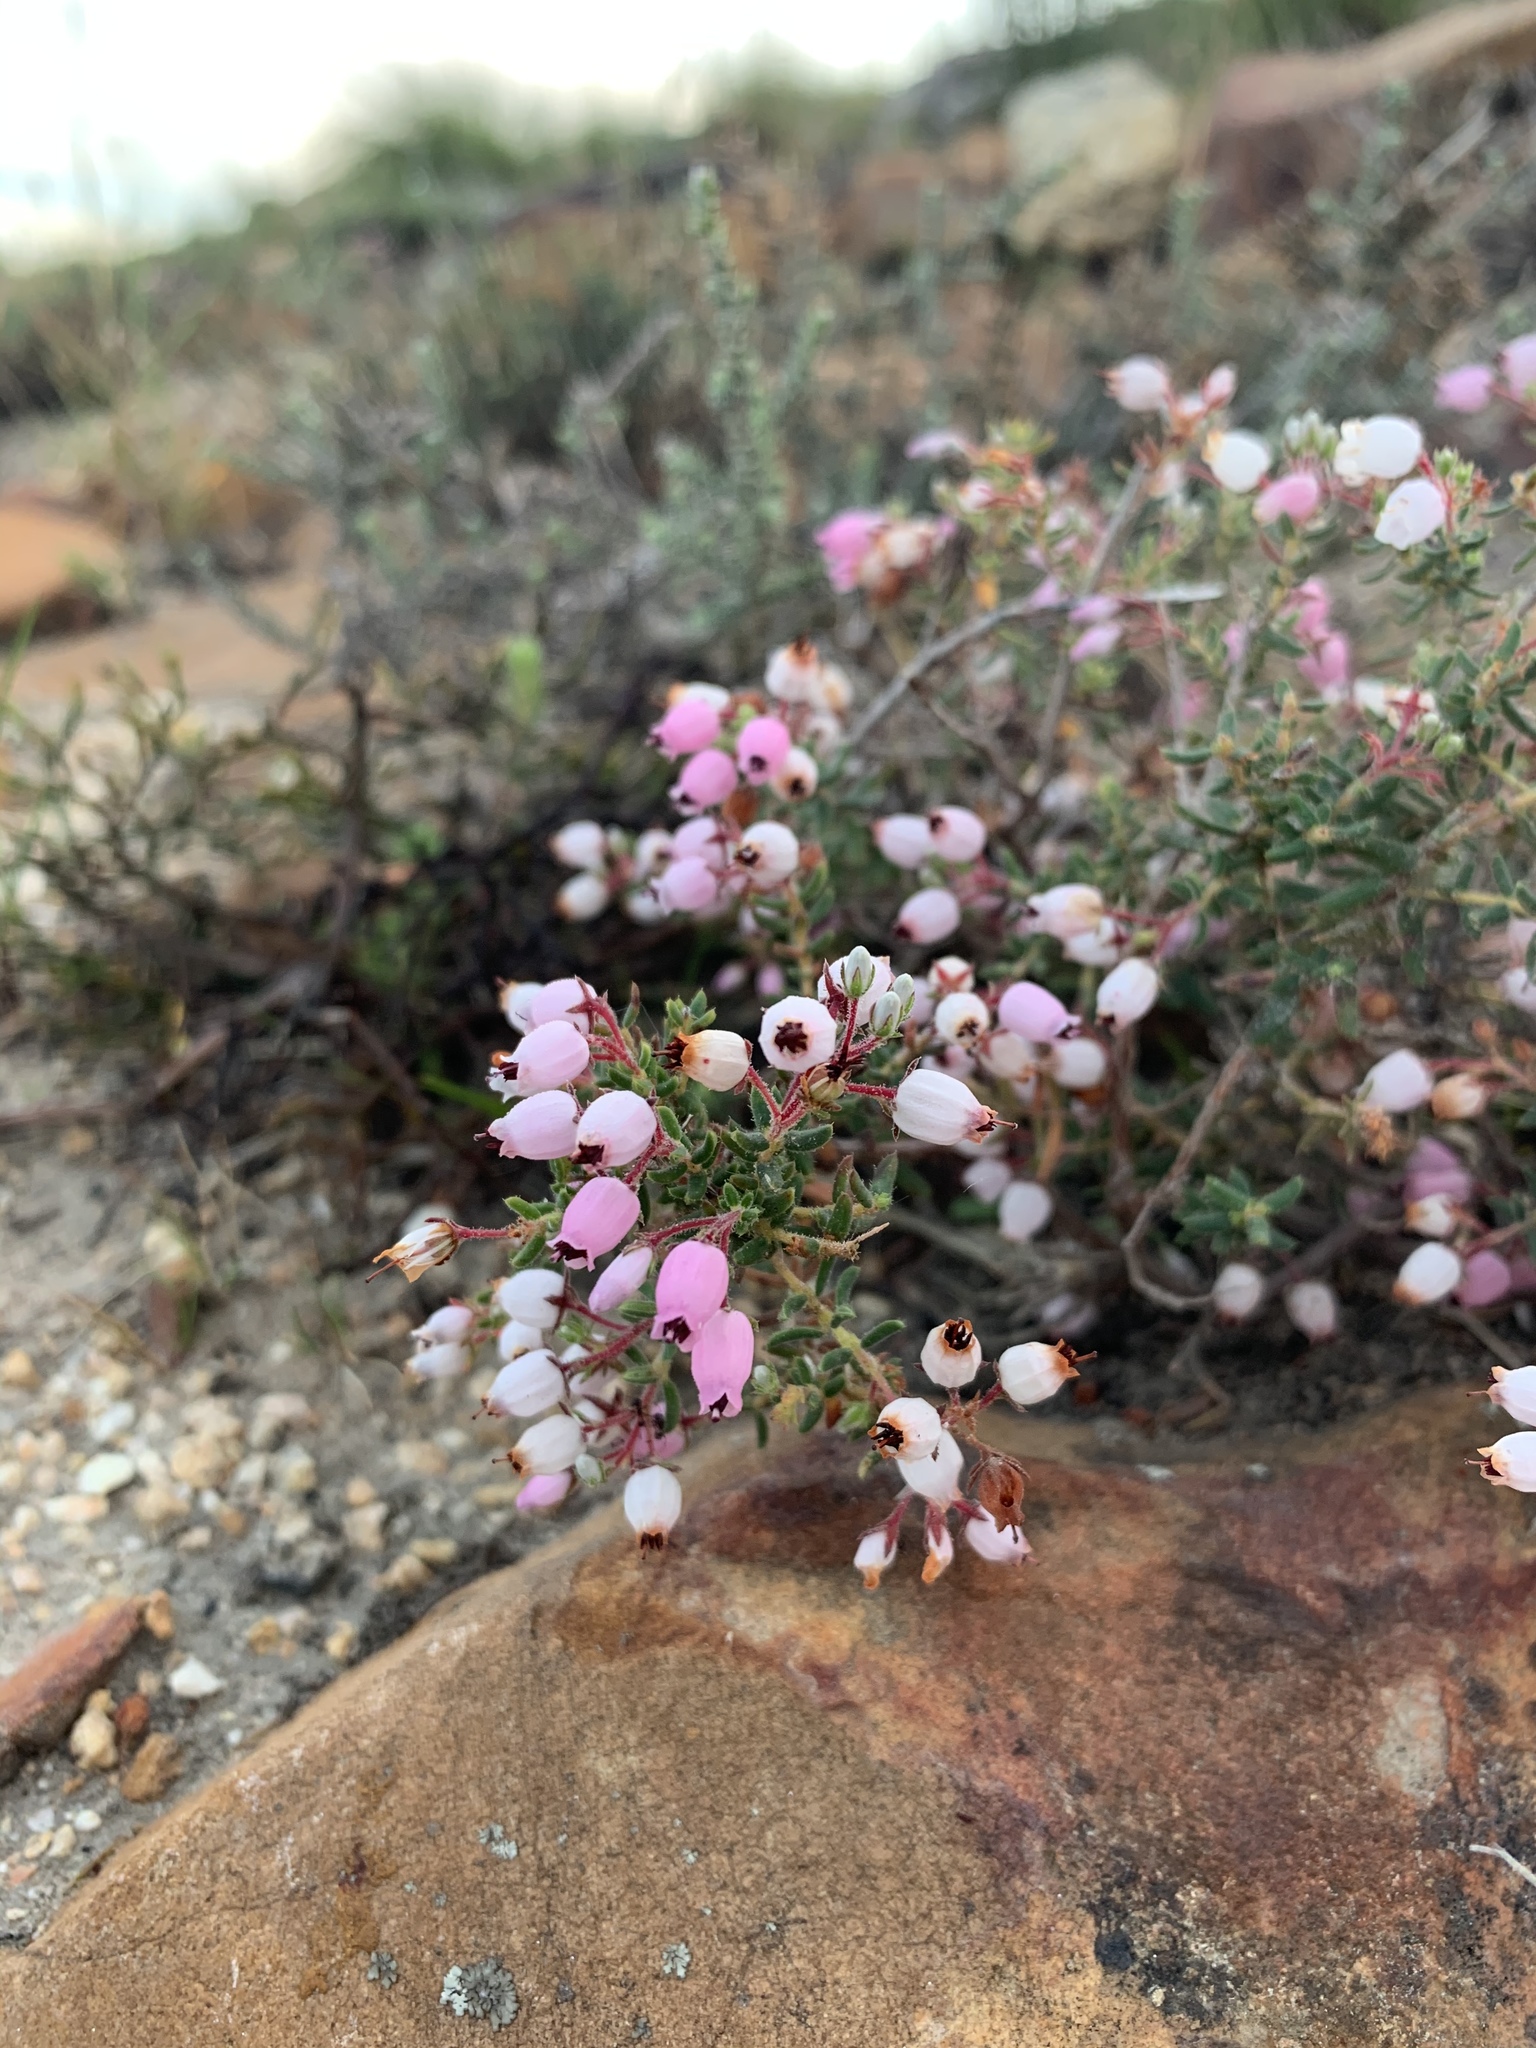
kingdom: Plantae
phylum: Tracheophyta
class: Magnoliopsida
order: Ericales
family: Ericaceae
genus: Erica
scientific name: Erica hirta
